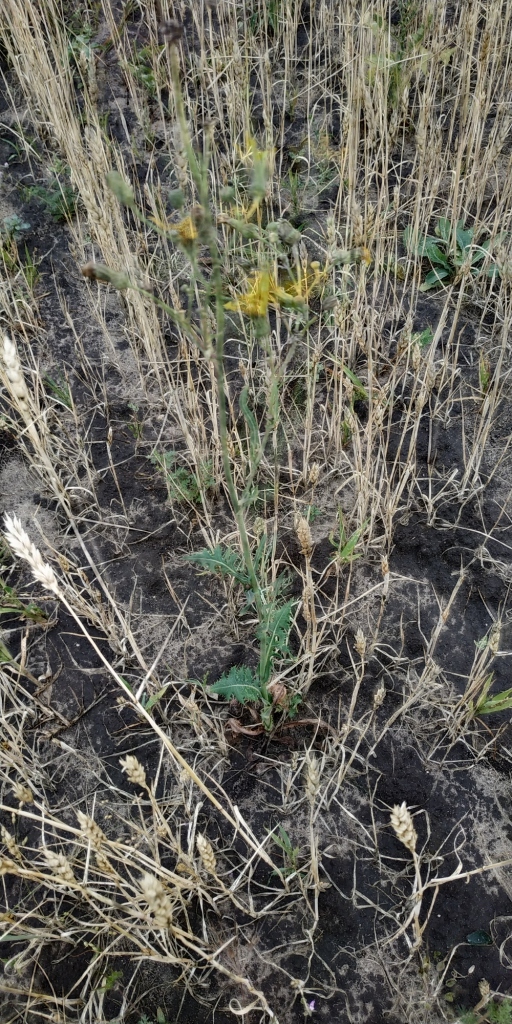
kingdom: Plantae
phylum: Tracheophyta
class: Magnoliopsida
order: Asterales
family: Asteraceae
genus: Sonchus
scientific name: Sonchus arvensis
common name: Perennial sow-thistle
